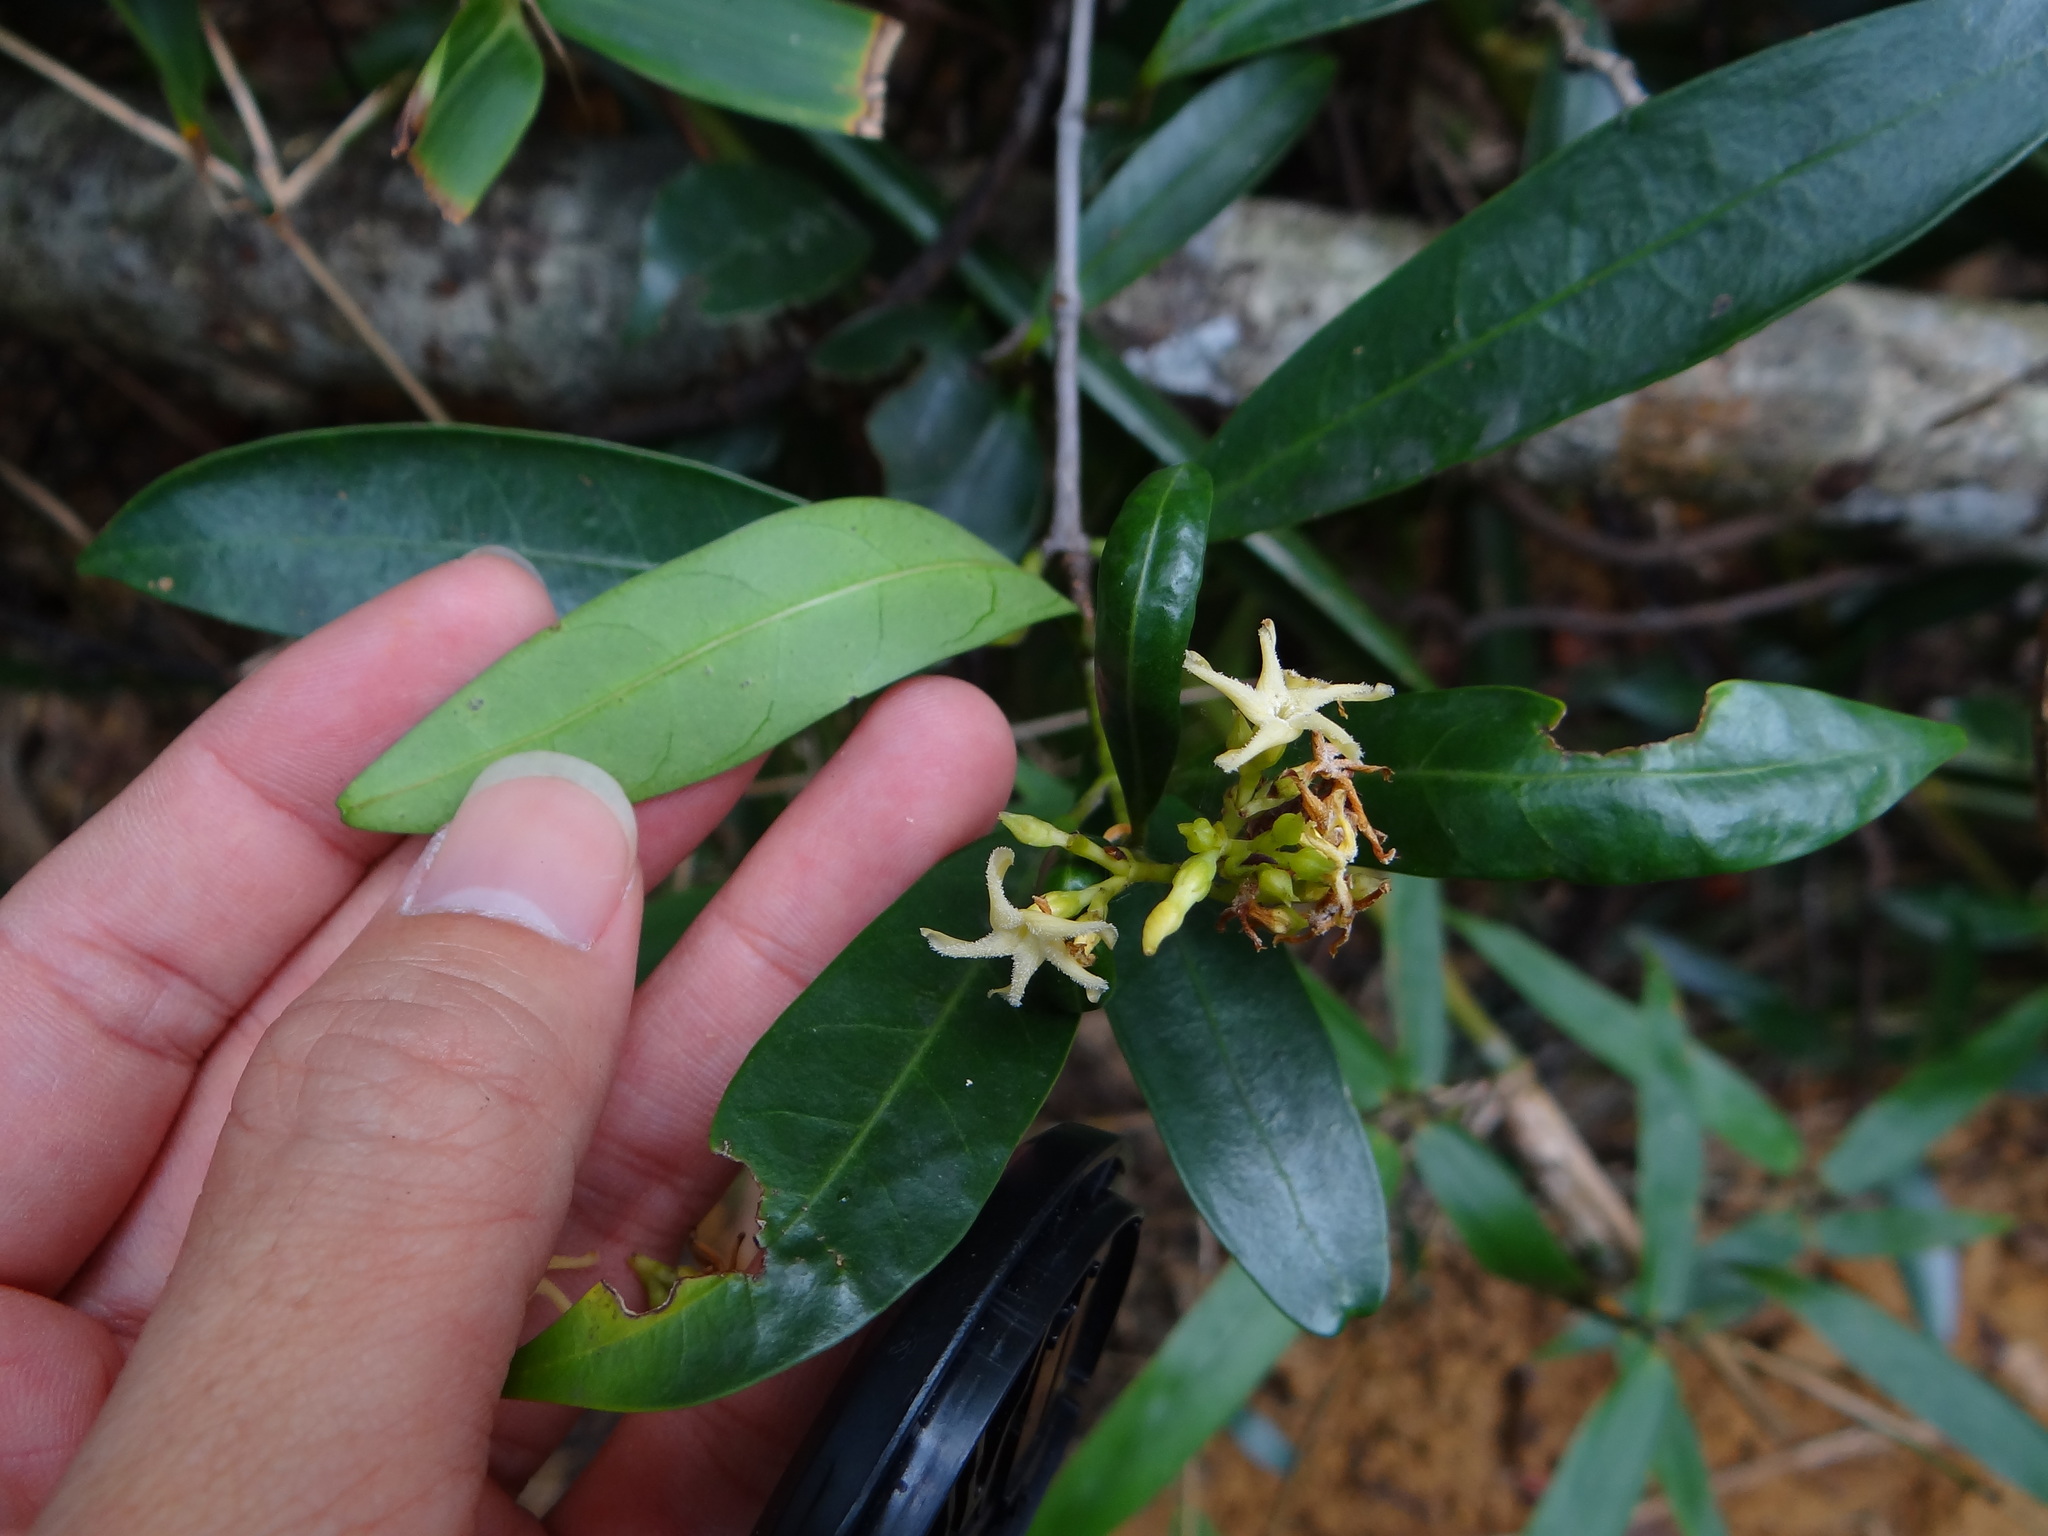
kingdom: Plantae
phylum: Tracheophyta
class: Magnoliopsida
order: Gentianales
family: Apocynaceae
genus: Anodendron
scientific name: Anodendron affine
